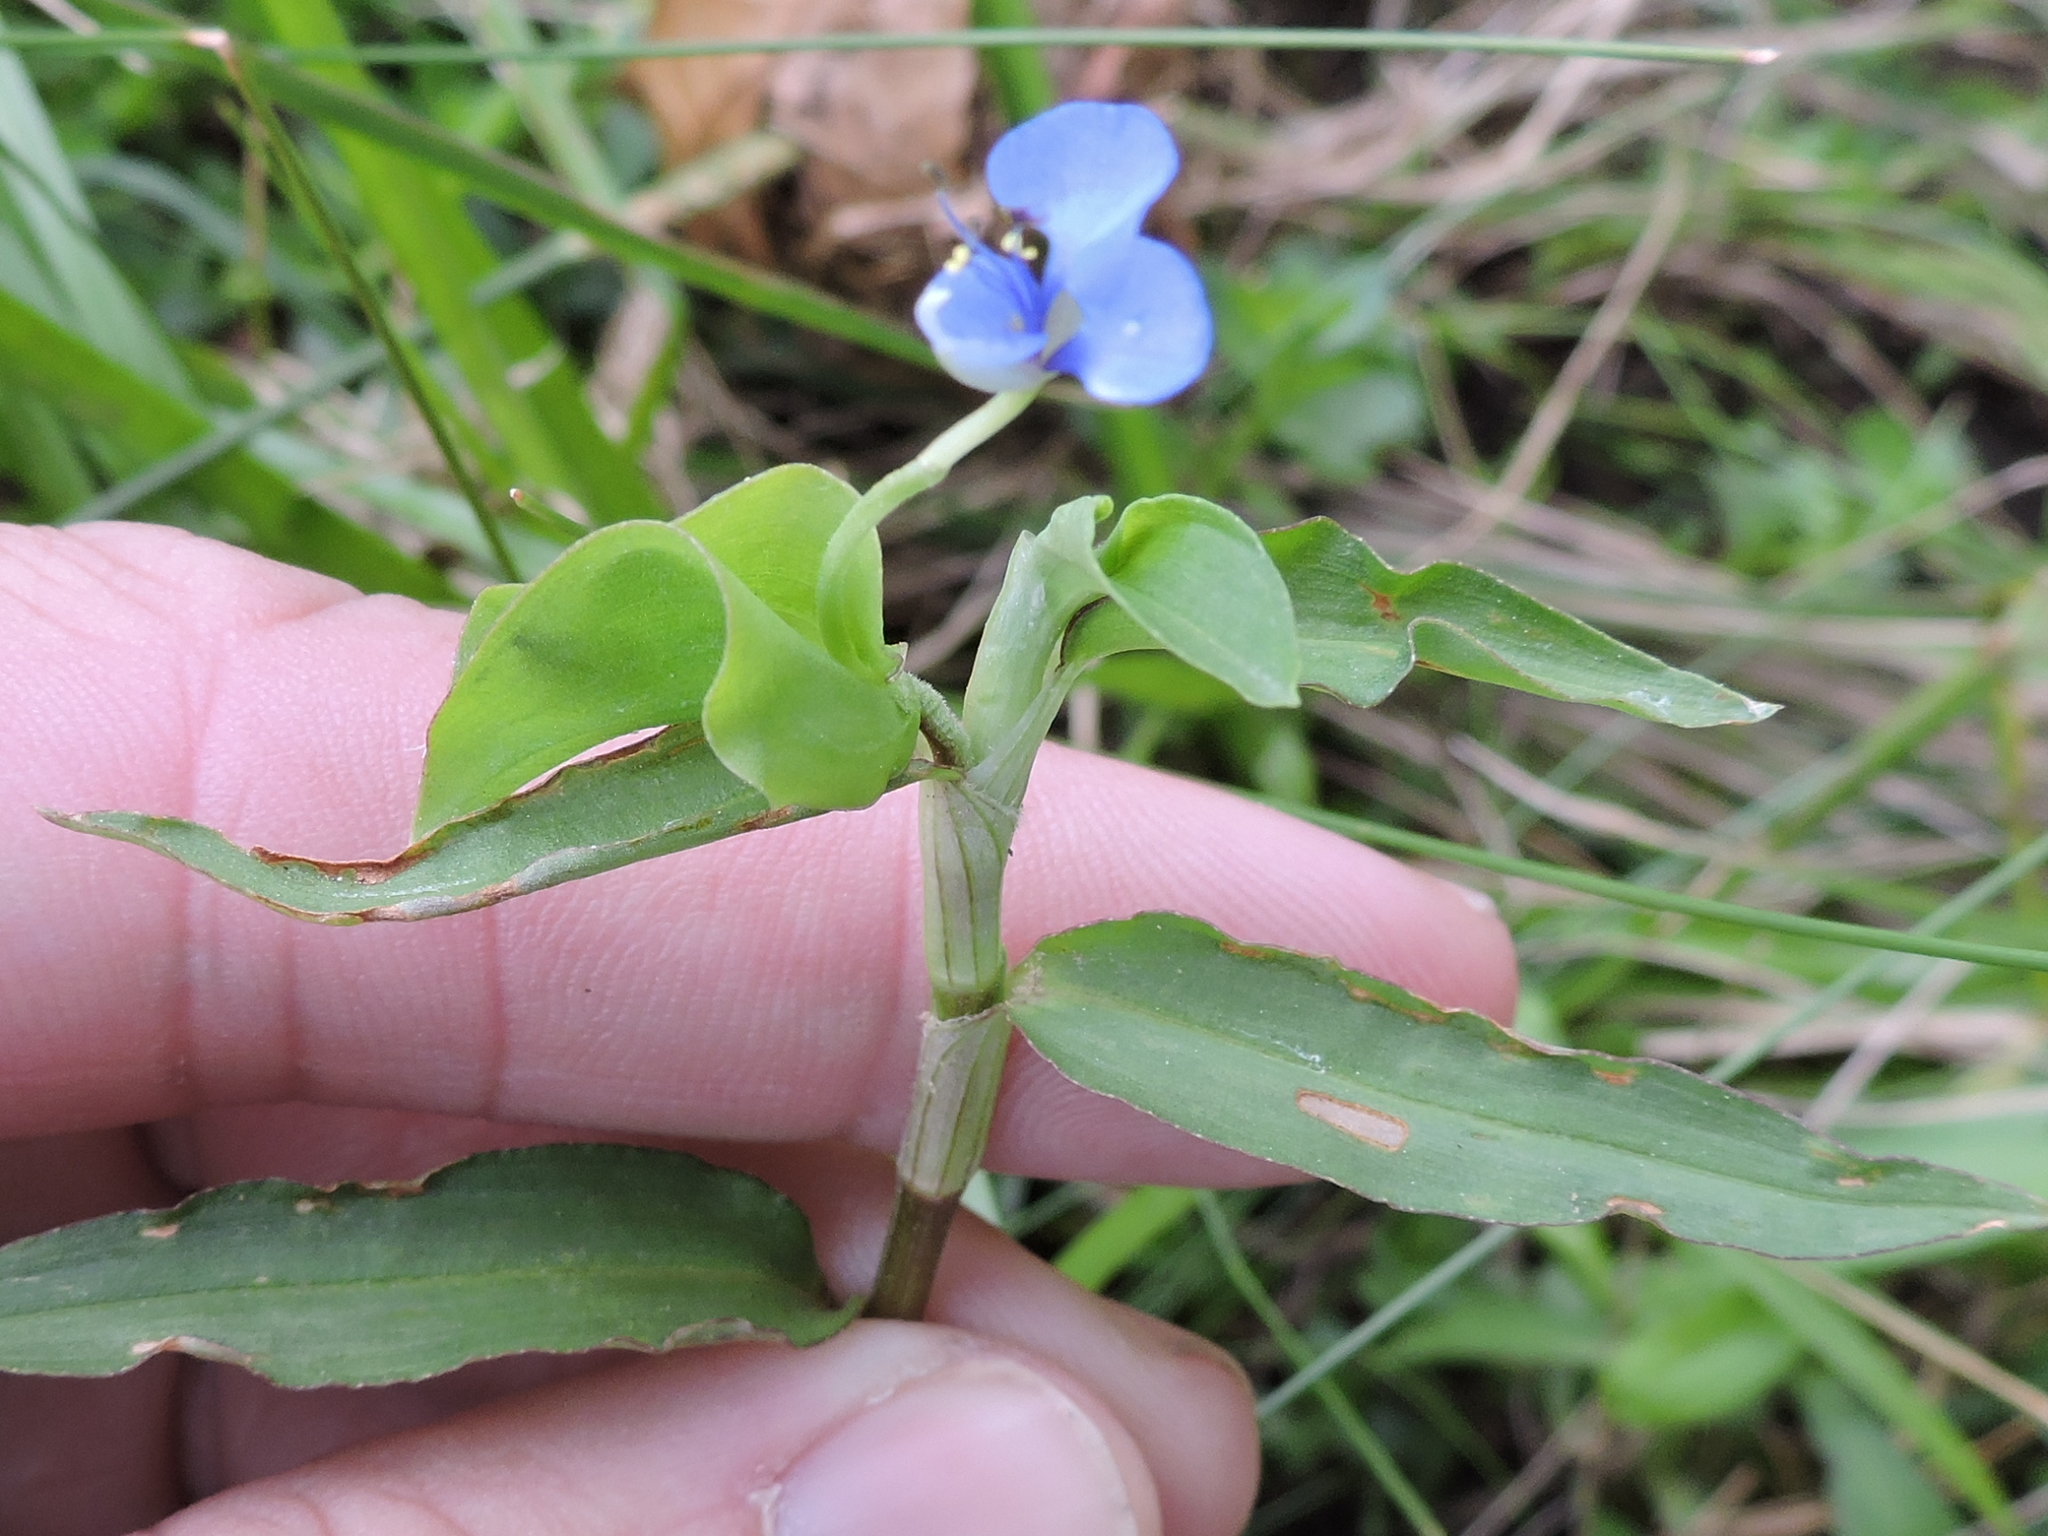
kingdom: Plantae
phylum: Tracheophyta
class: Liliopsida
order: Commelinales
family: Commelinaceae
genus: Commelina
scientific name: Commelina diffusa
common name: Climbing dayflower
